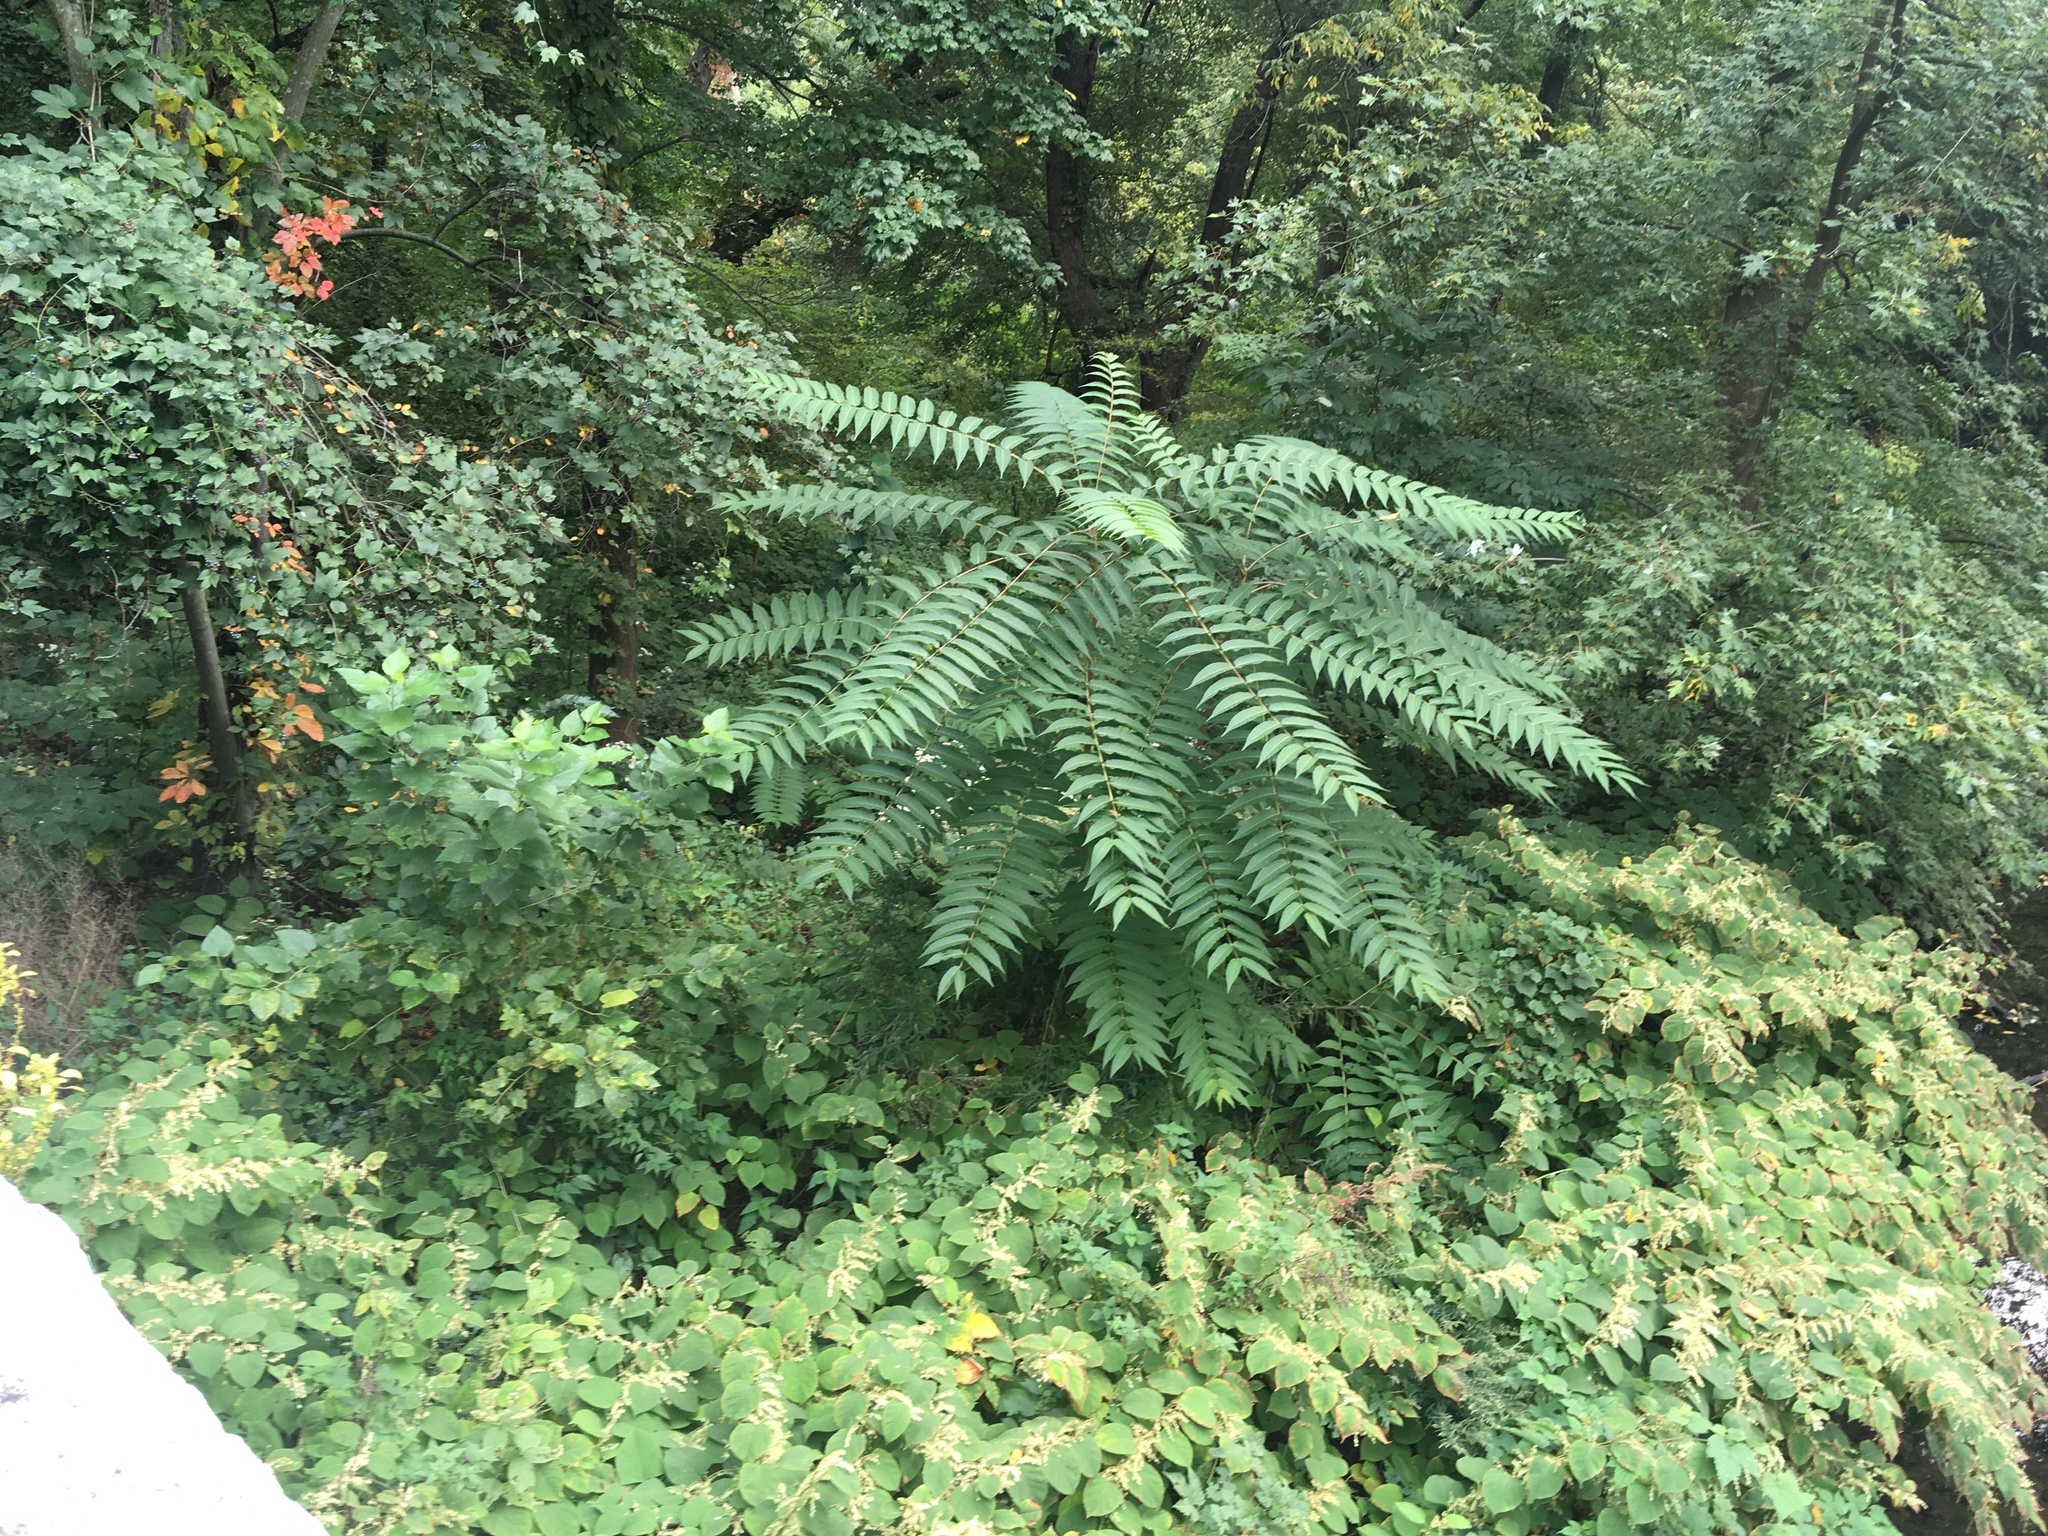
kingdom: Plantae
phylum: Tracheophyta
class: Magnoliopsida
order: Asterales
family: Asteraceae
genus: Artemisia
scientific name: Artemisia vulgaris
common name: Mugwort
